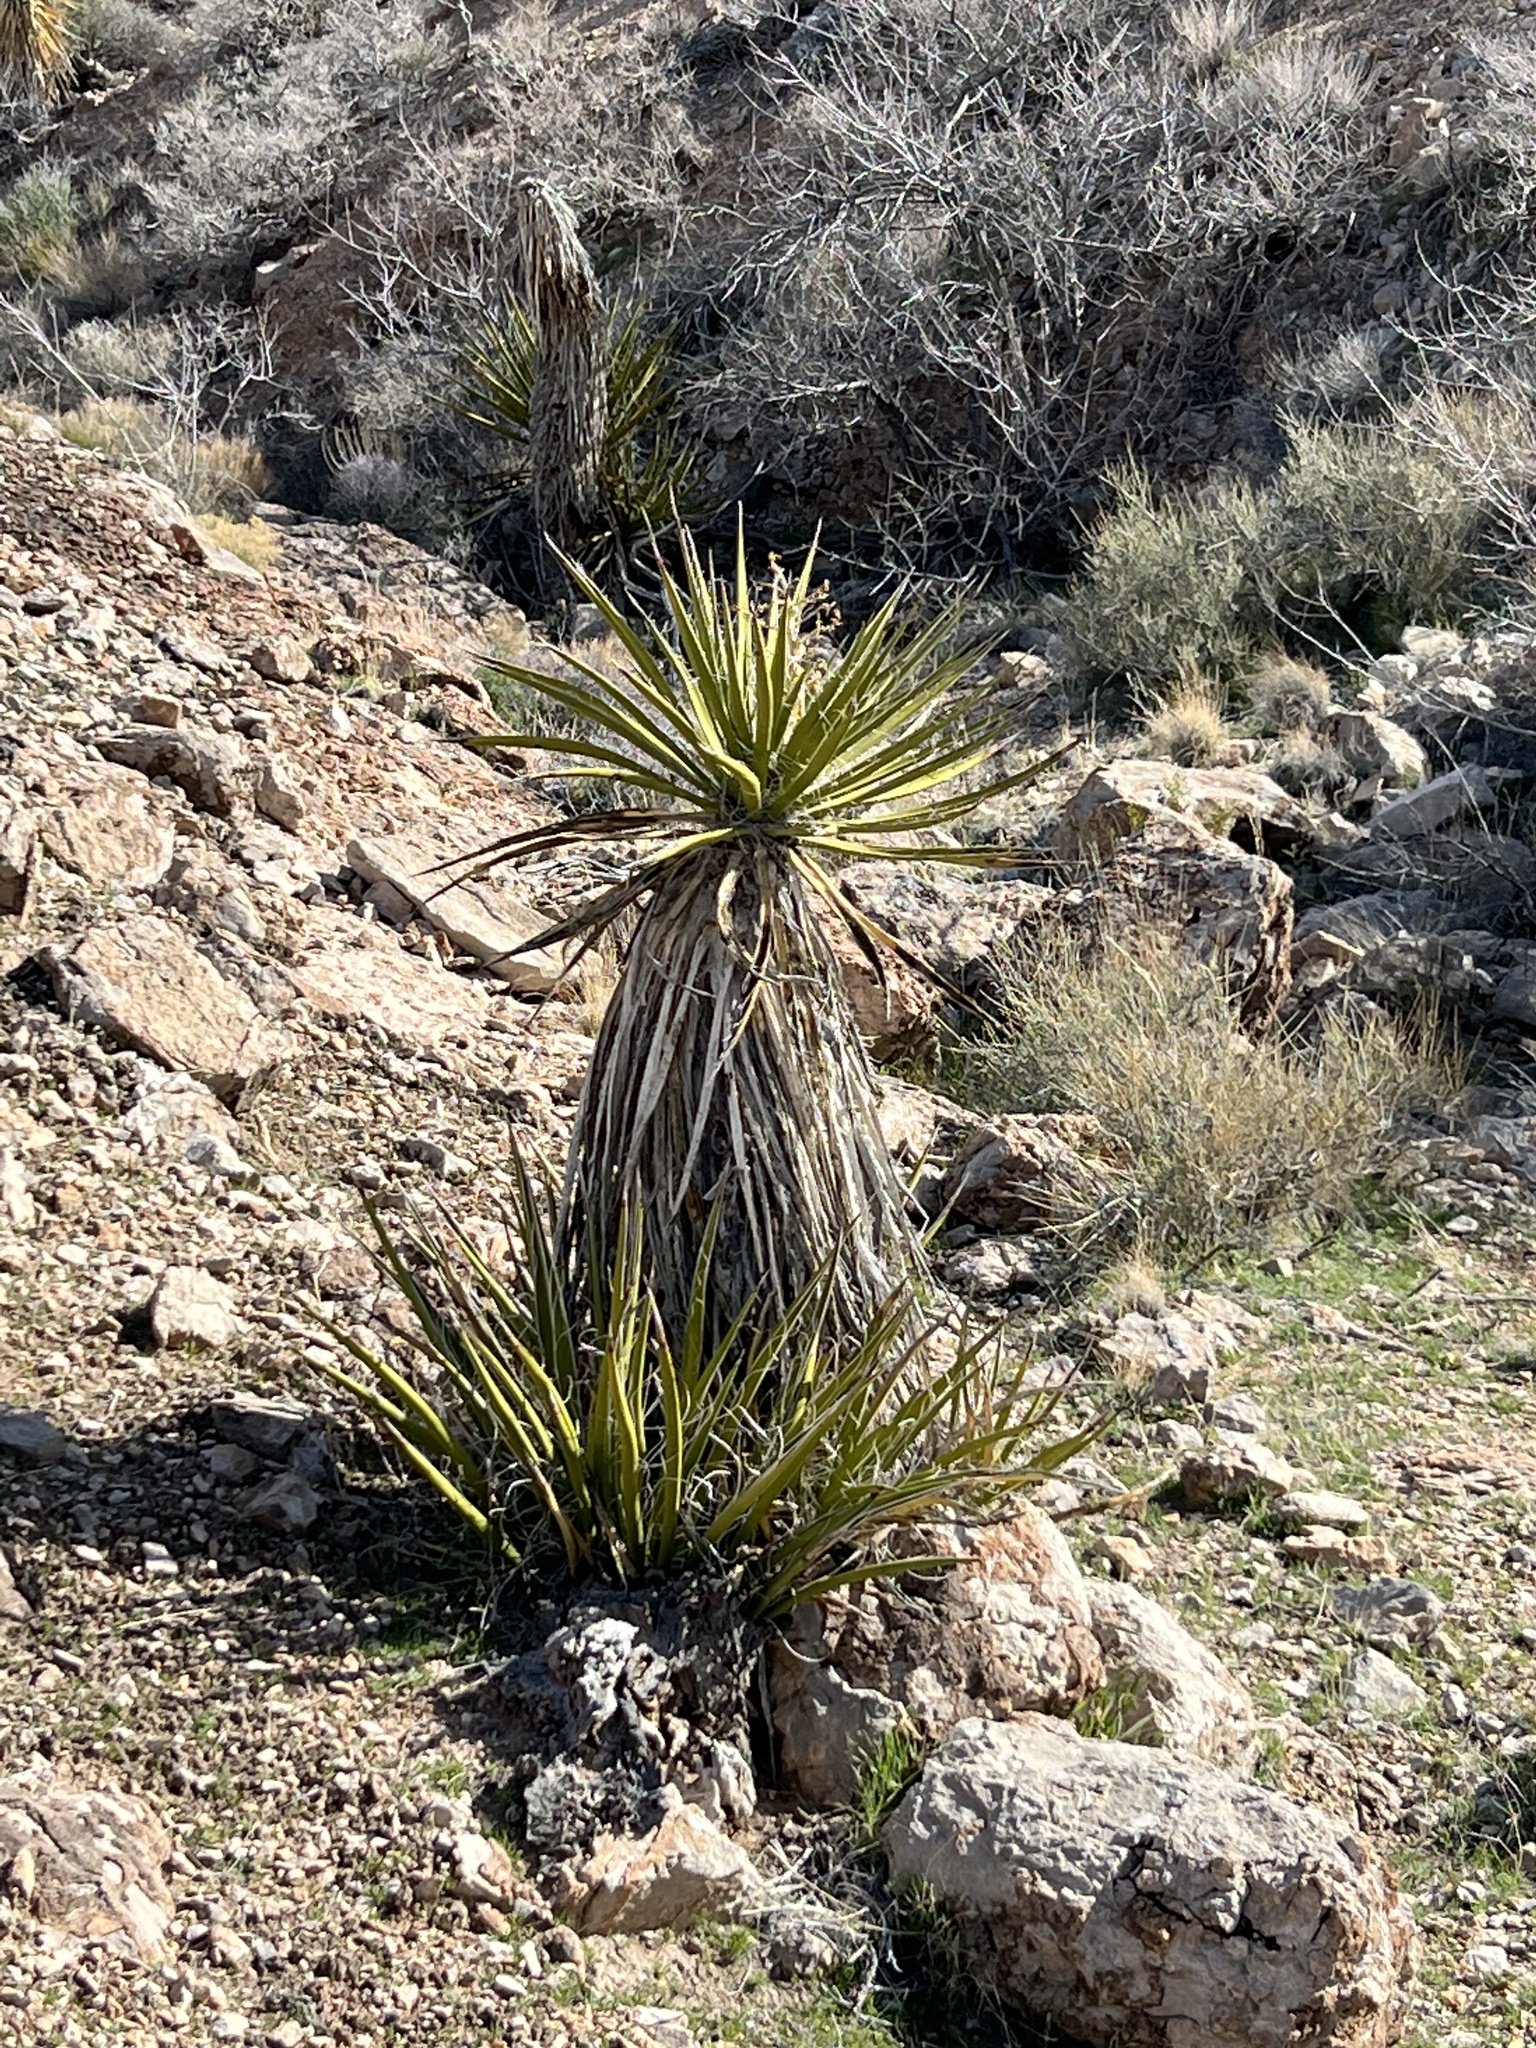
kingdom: Plantae
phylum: Tracheophyta
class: Liliopsida
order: Asparagales
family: Asparagaceae
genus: Yucca
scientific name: Yucca schidigera
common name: Mojave yucca
